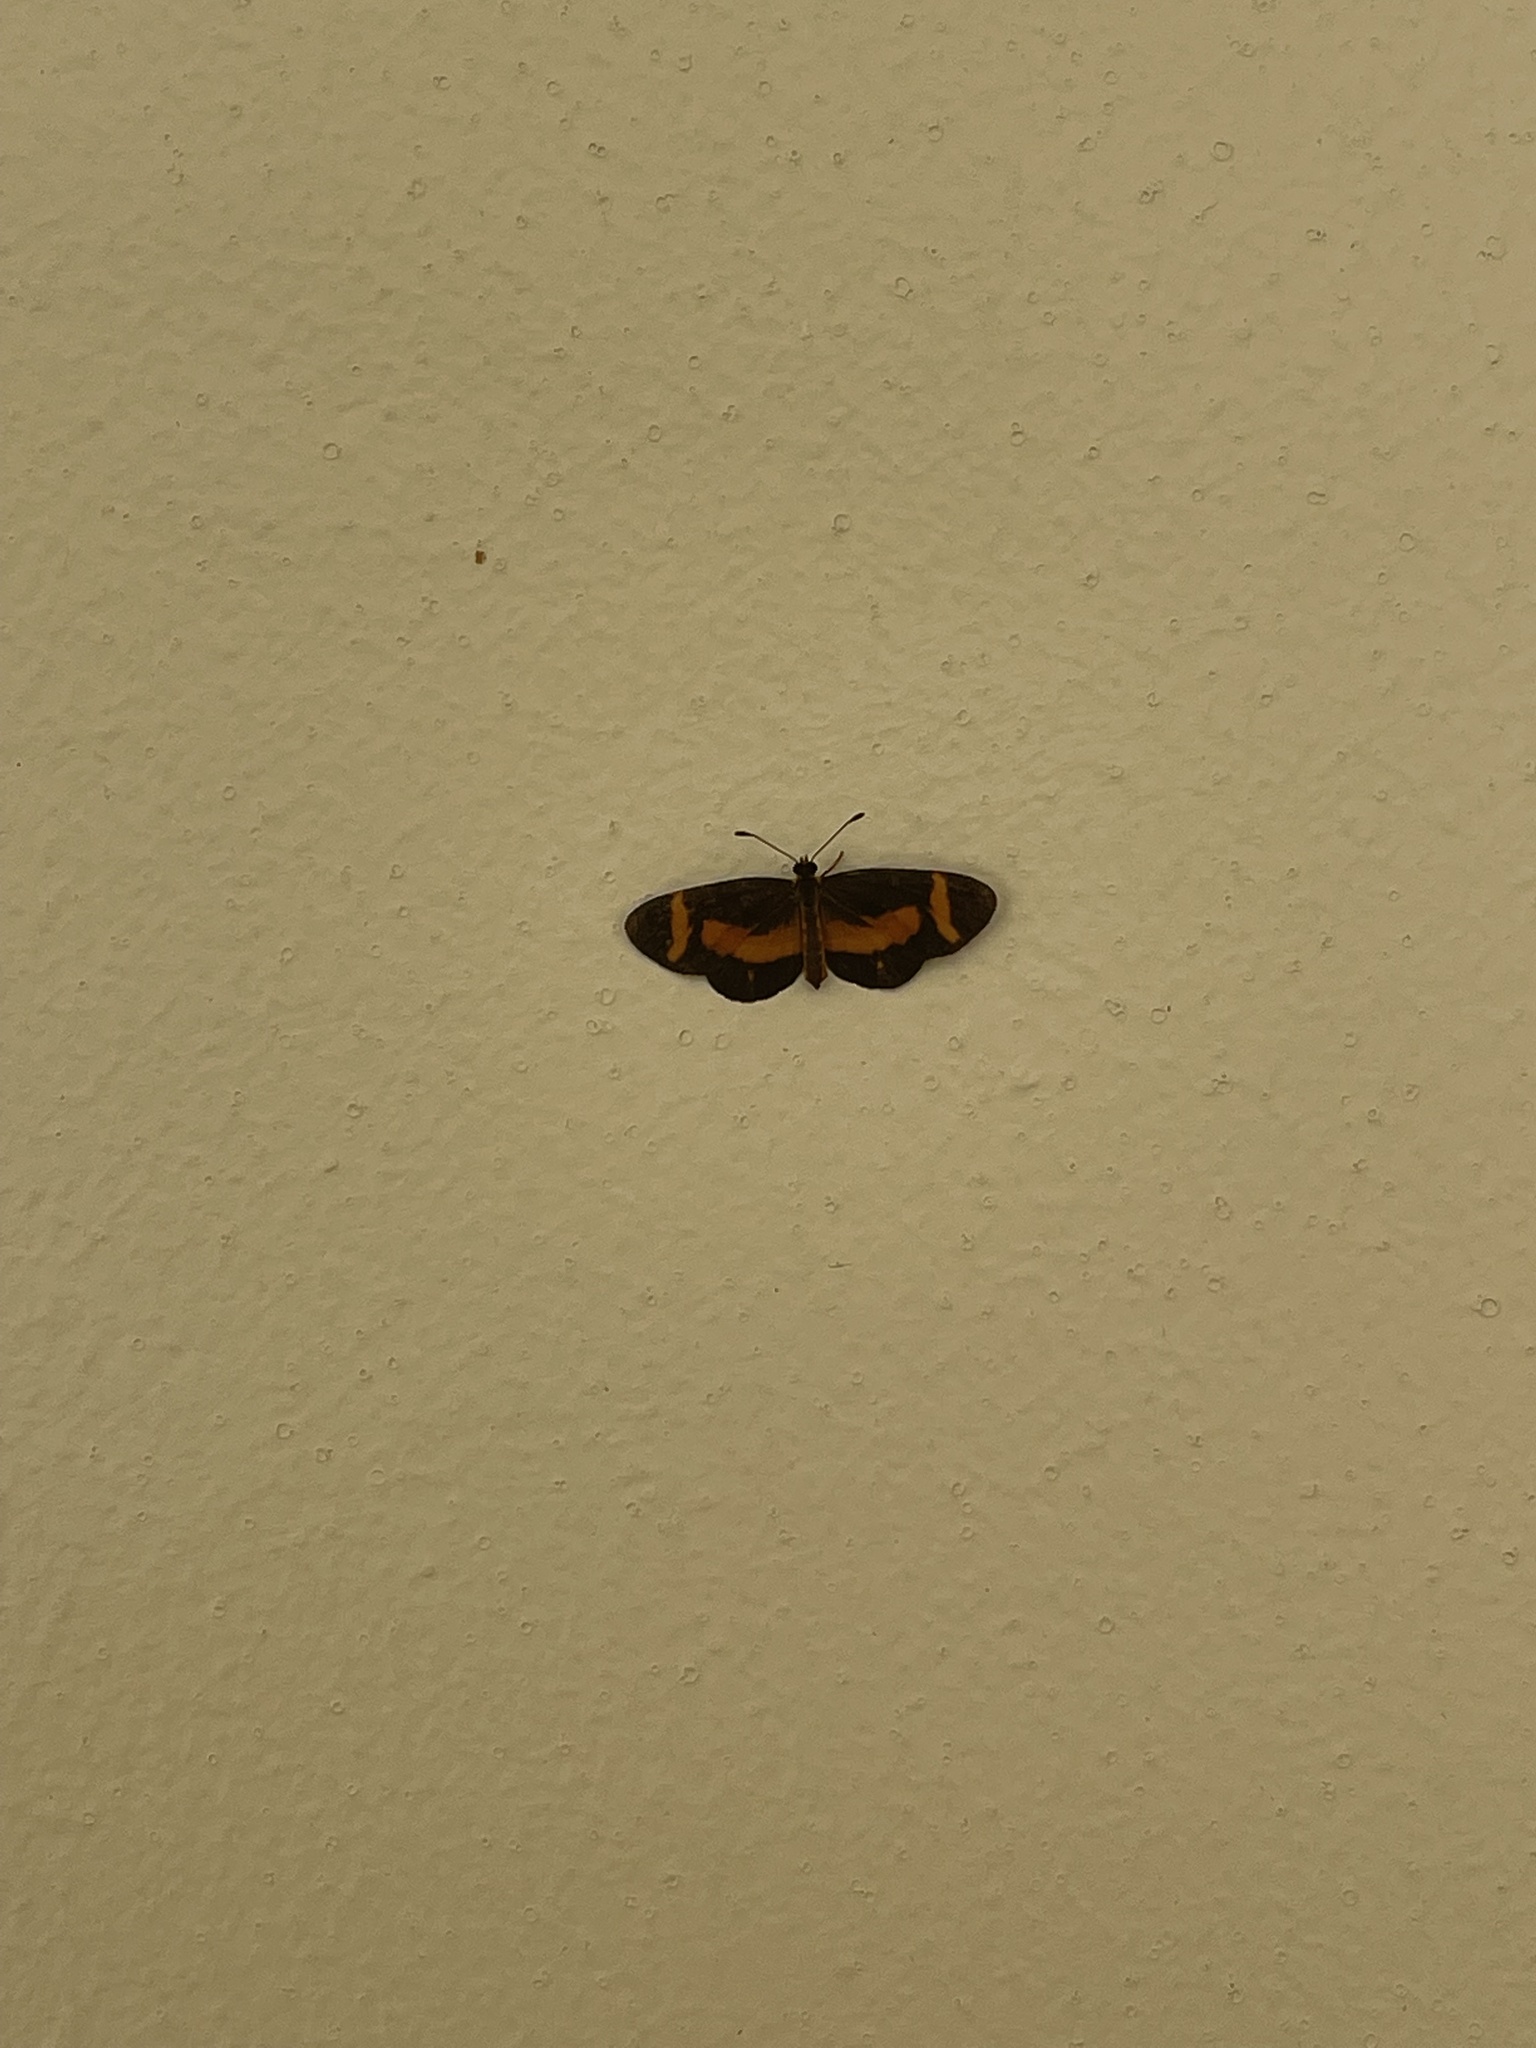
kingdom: Animalia
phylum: Arthropoda
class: Insecta
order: Lepidoptera
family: Nymphalidae
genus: Microtia
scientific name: Microtia elva
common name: Elf
